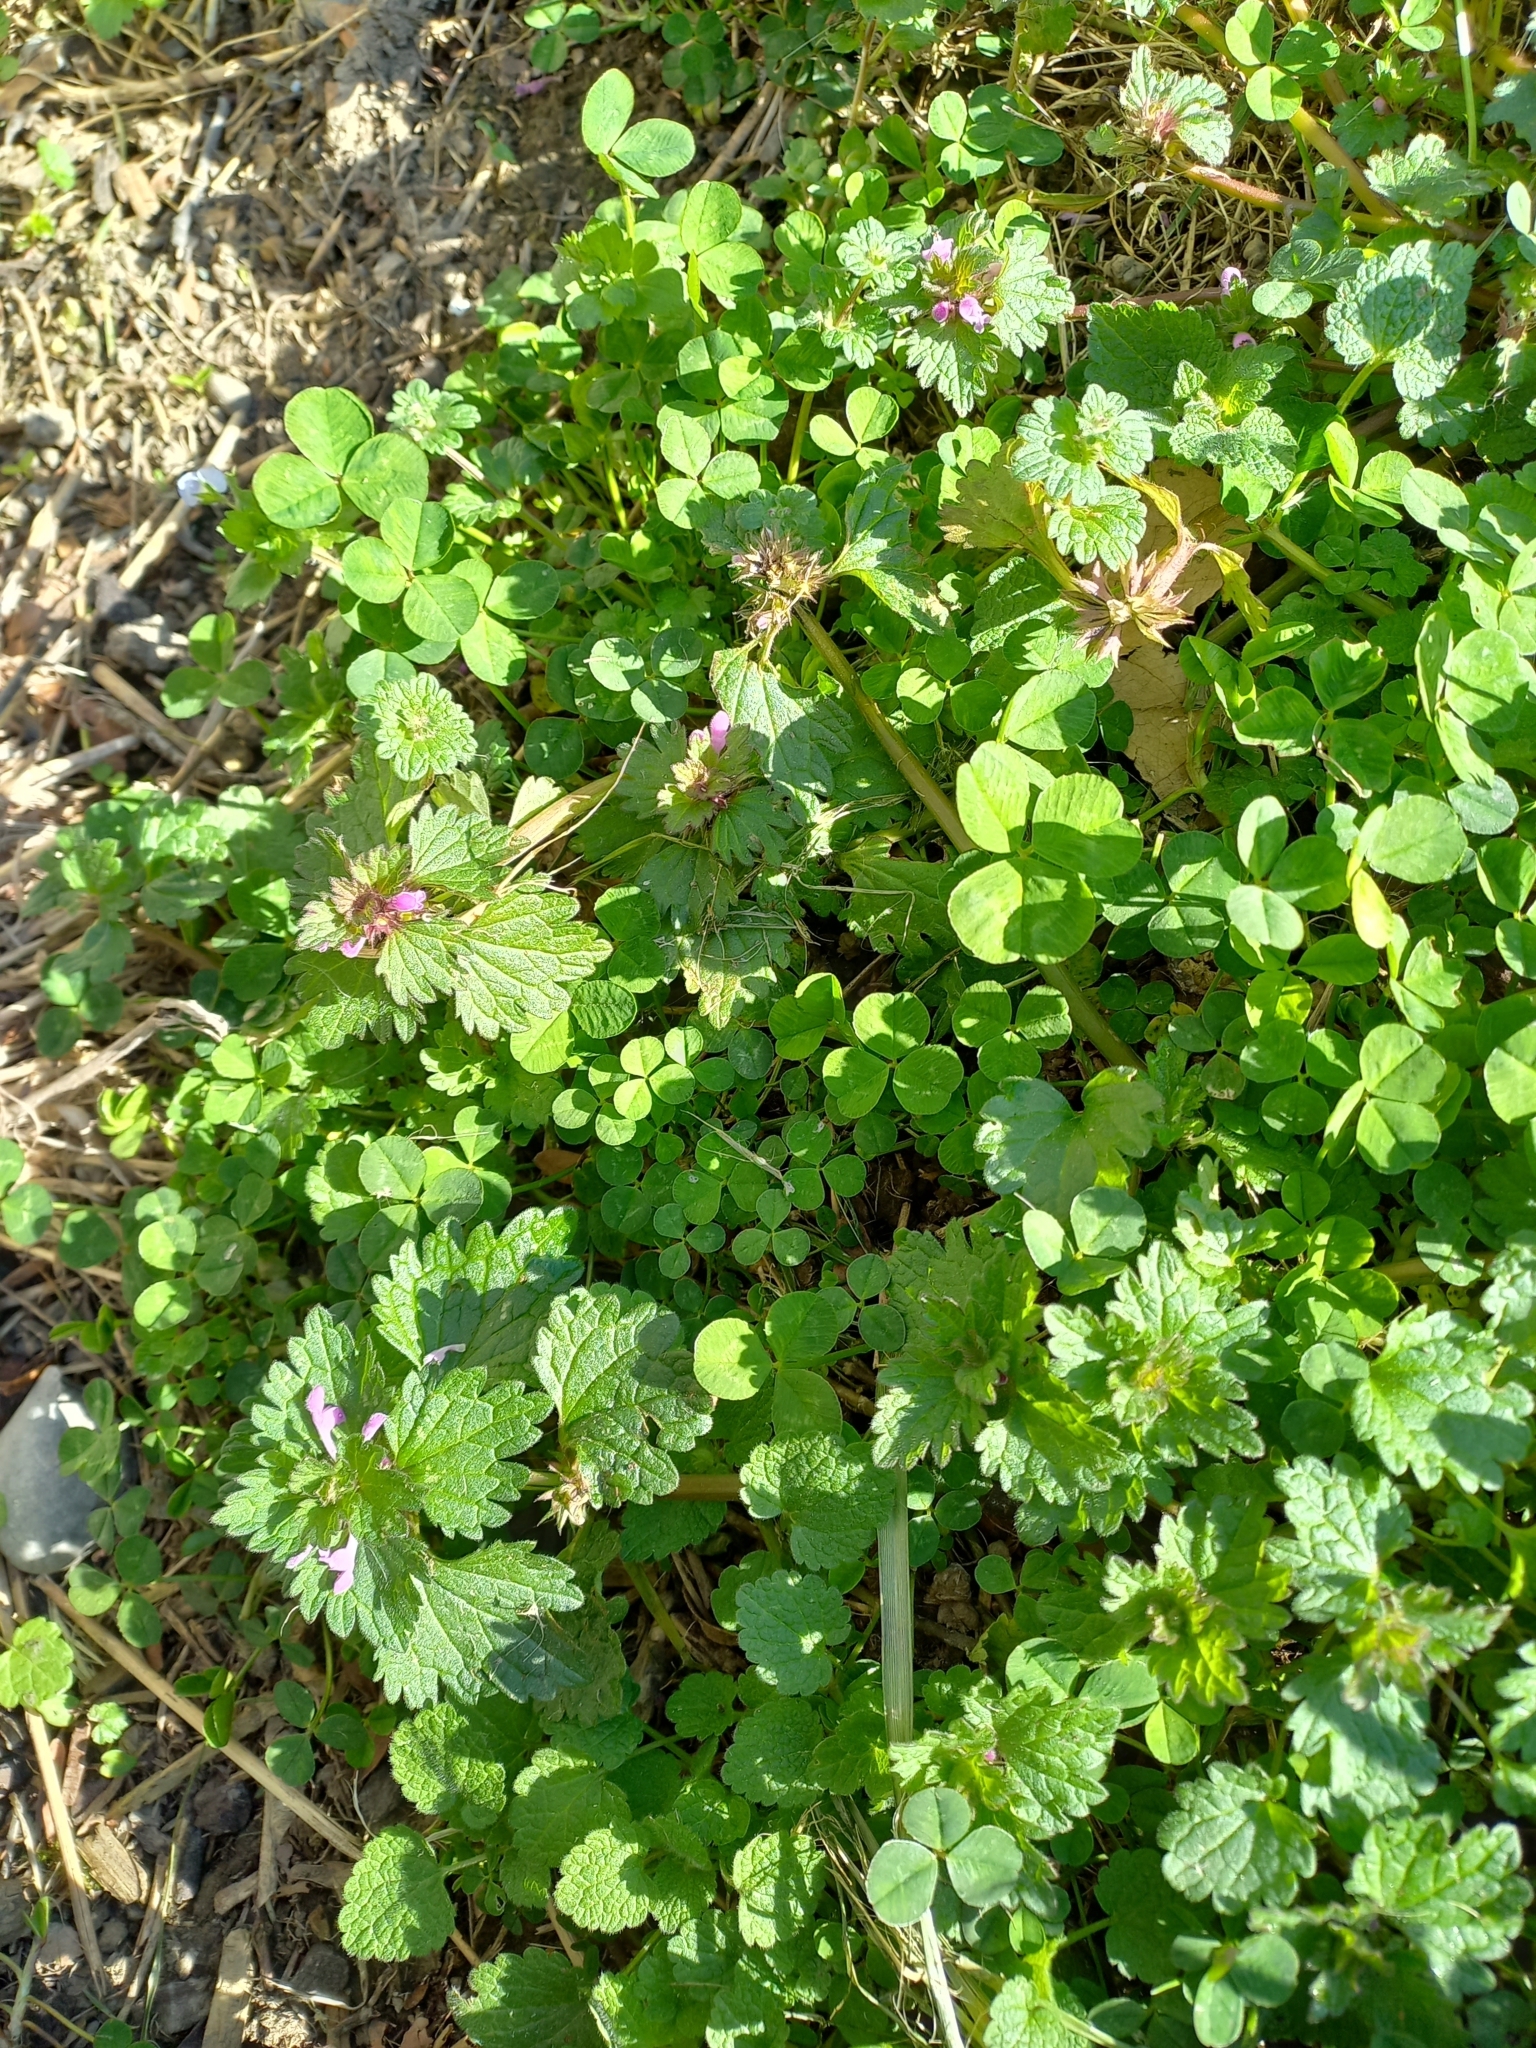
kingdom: Plantae
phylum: Tracheophyta
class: Magnoliopsida
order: Lamiales
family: Lamiaceae
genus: Lamium
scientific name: Lamium hybridum
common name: Cut-leaved dead-nettle
